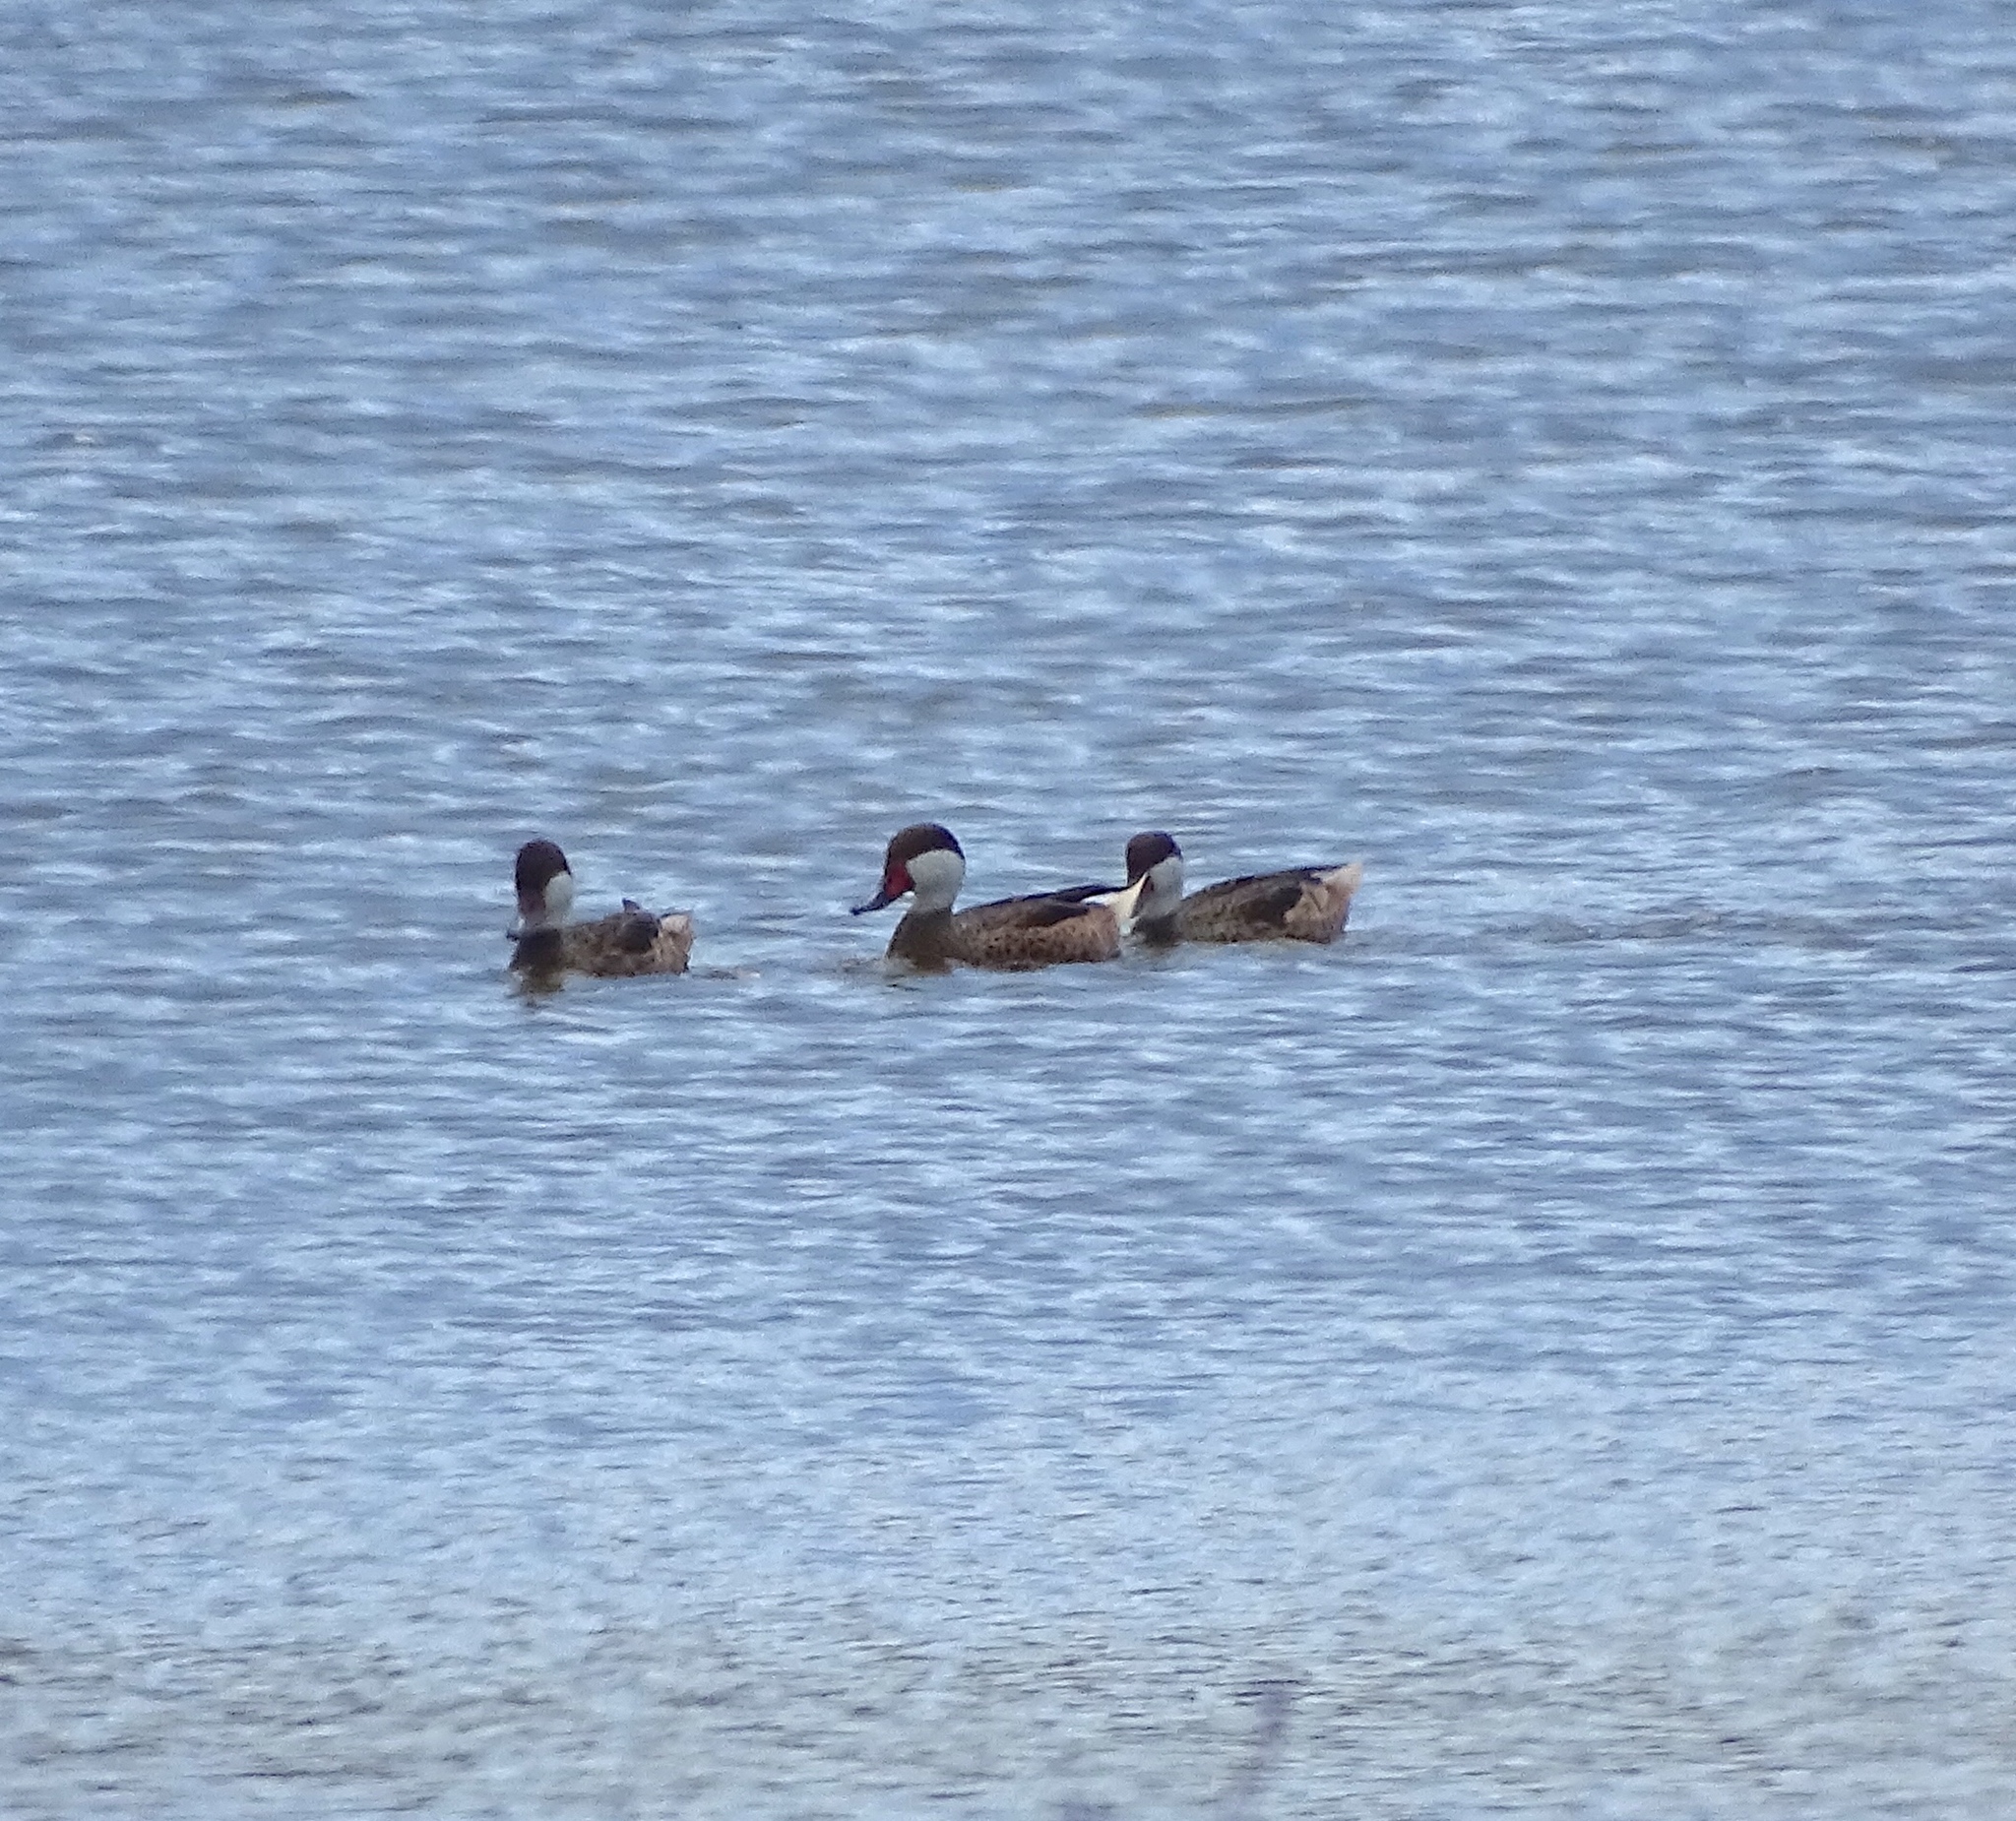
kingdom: Animalia
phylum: Chordata
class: Aves
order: Anseriformes
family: Anatidae
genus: Anas
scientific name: Anas bahamensis
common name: White-cheeked pintail
